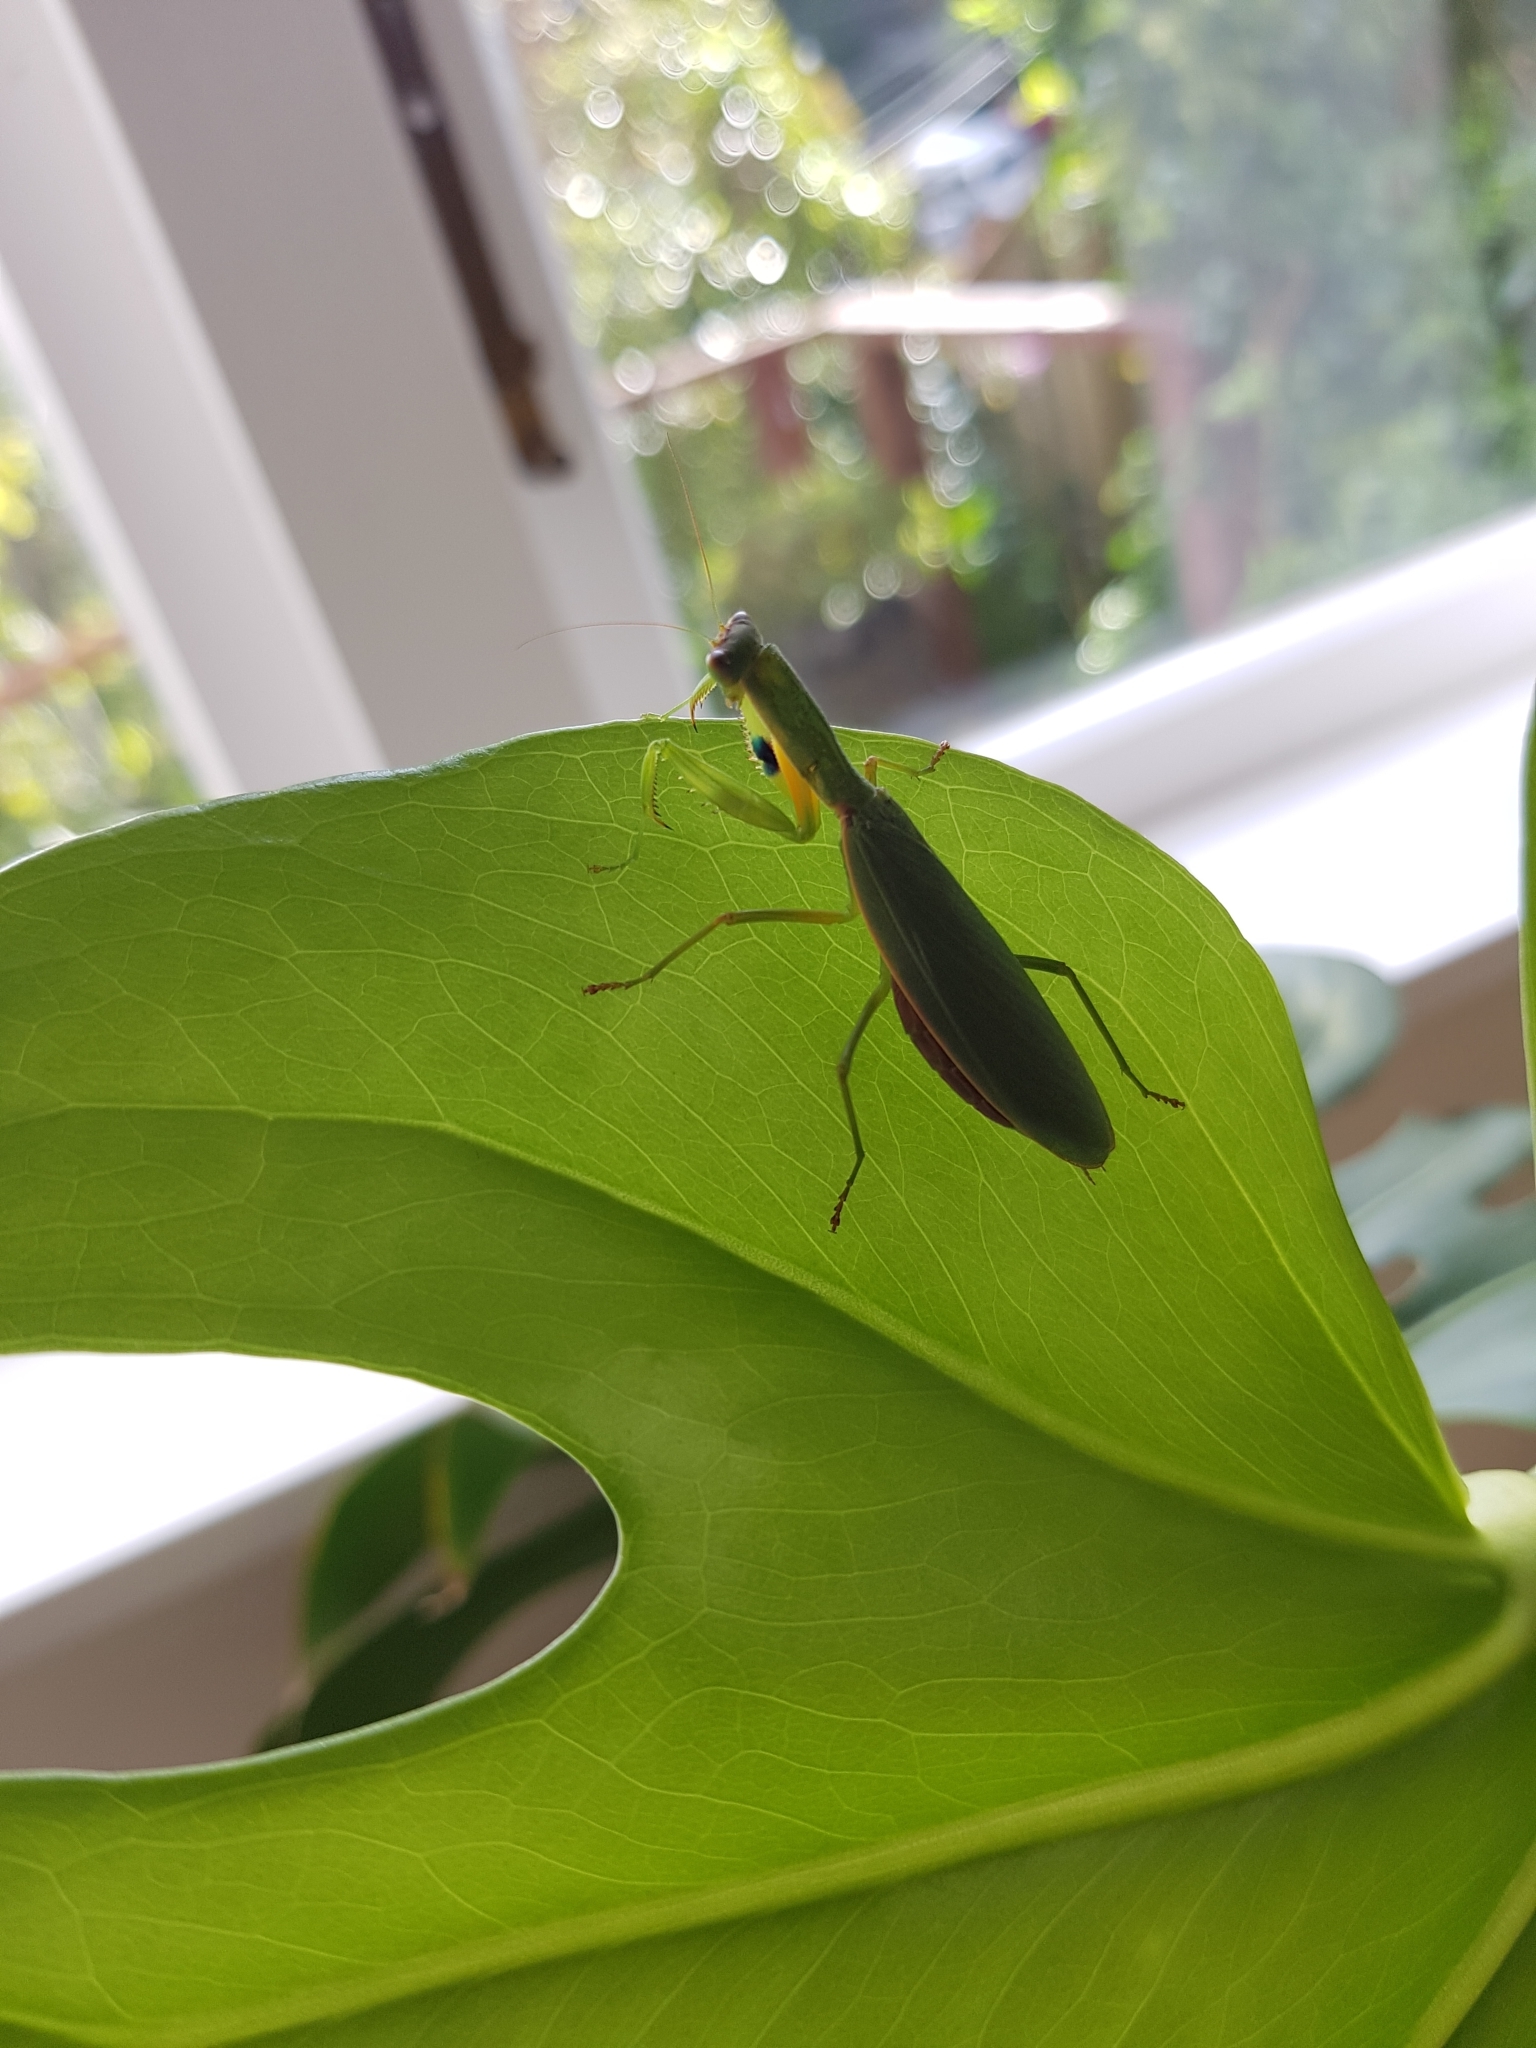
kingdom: Animalia
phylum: Arthropoda
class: Insecta
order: Mantodea
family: Mantidae
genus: Orthodera
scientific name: Orthodera novaezealandiae
